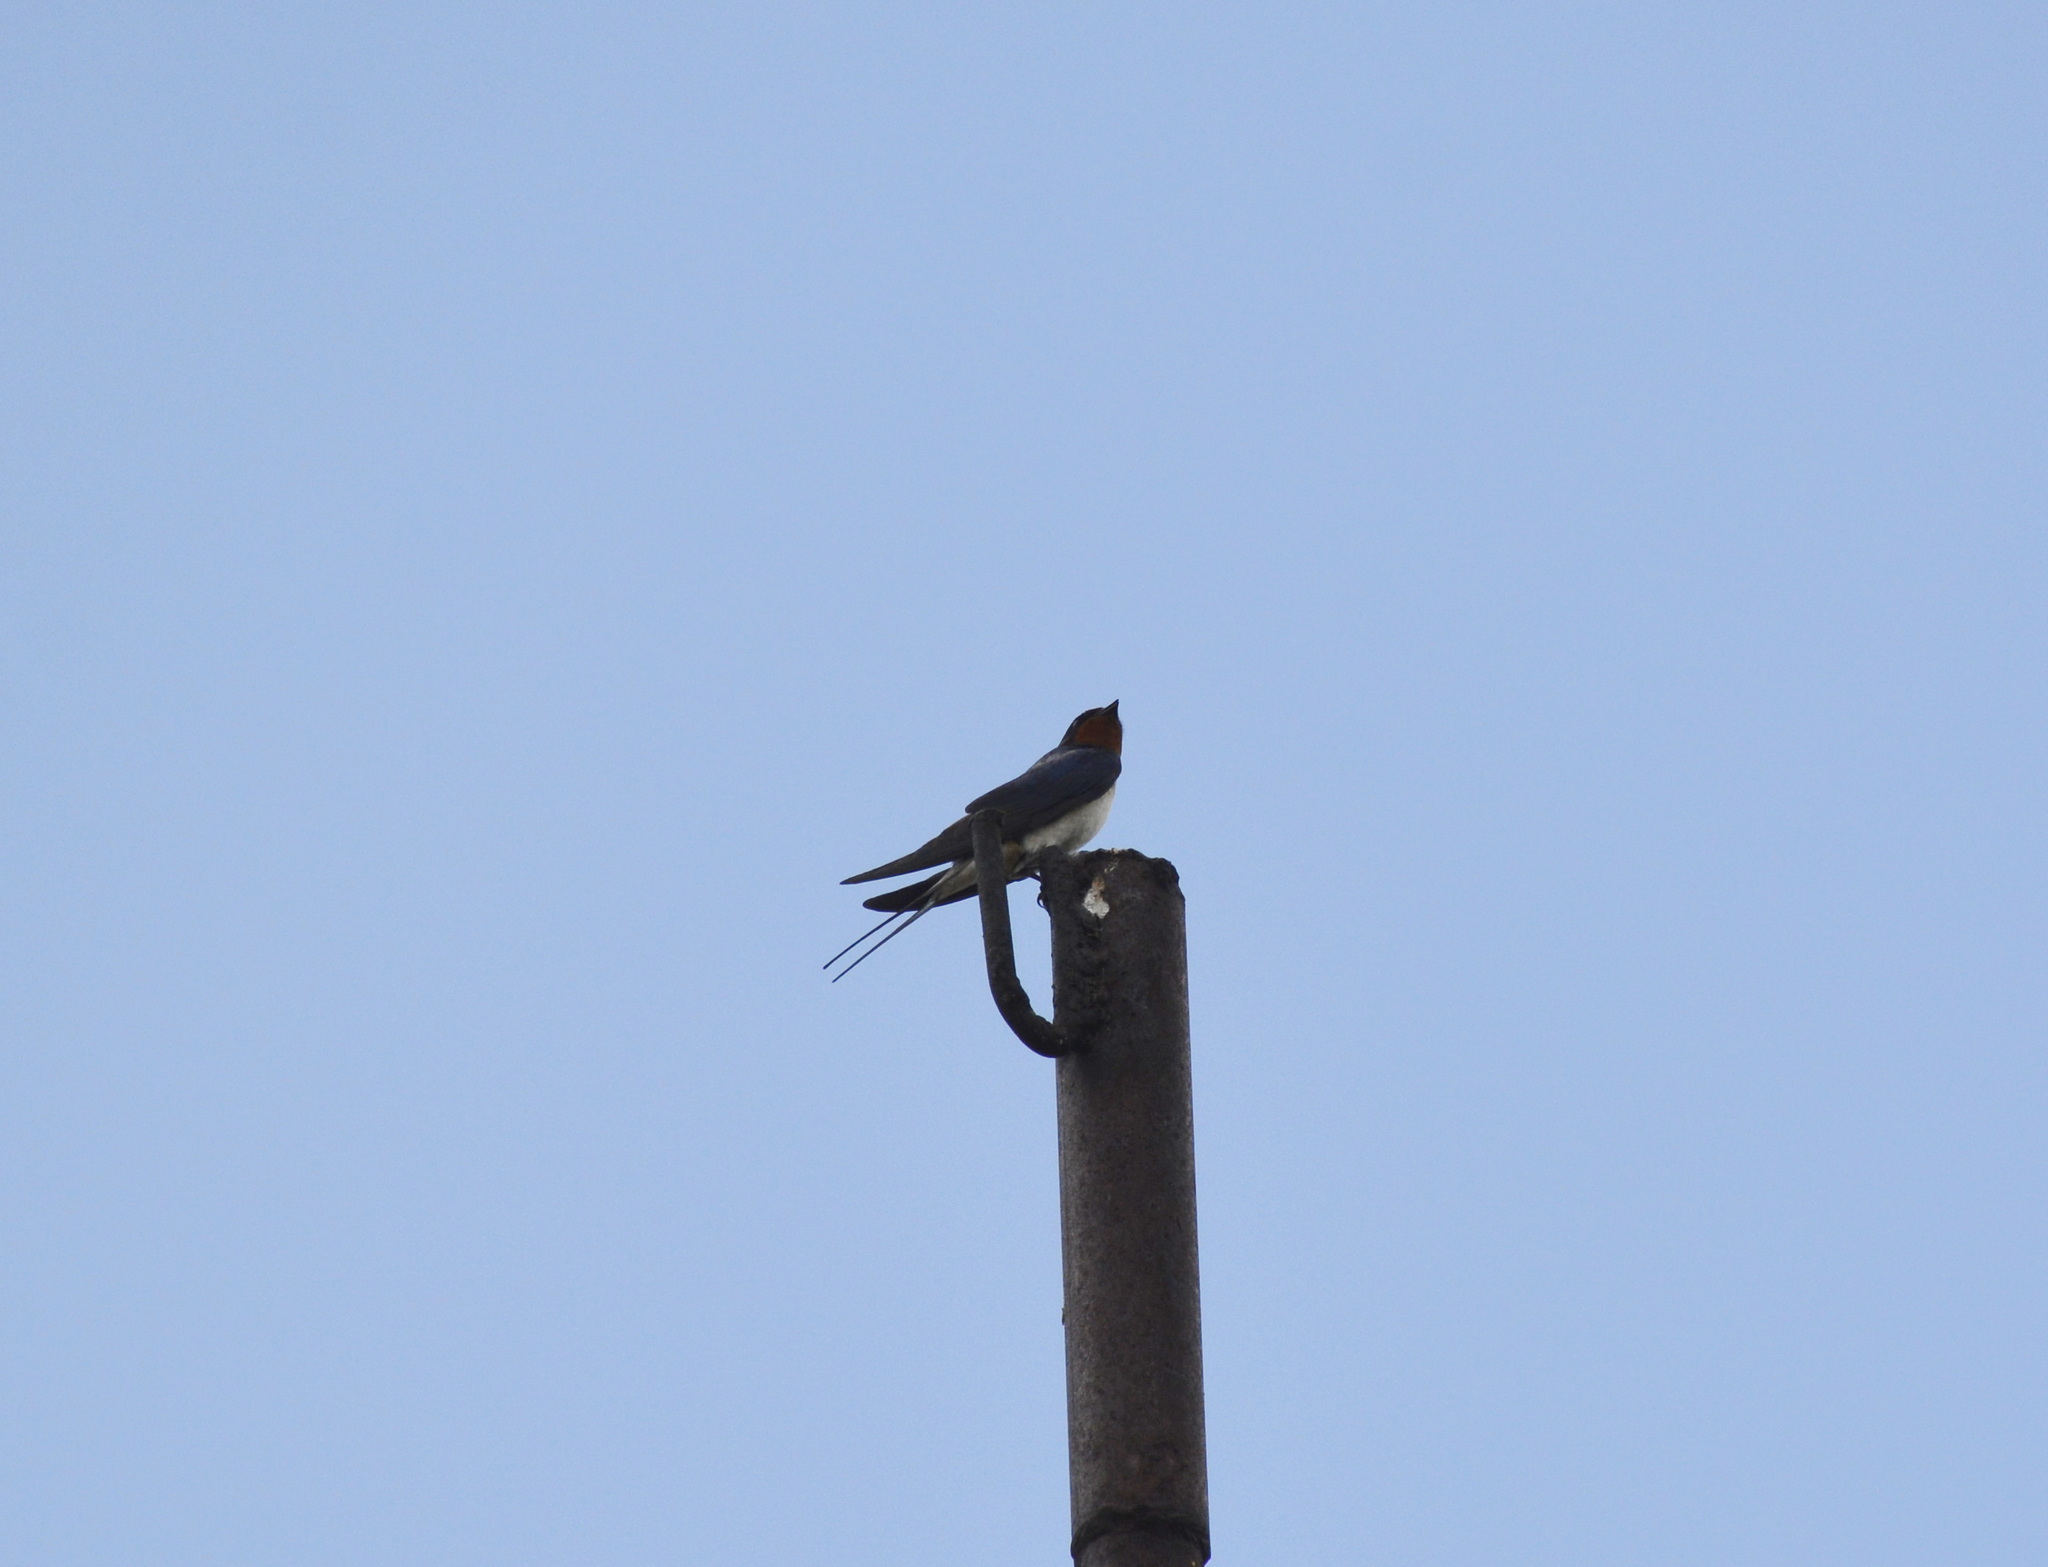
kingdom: Animalia
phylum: Chordata
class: Aves
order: Passeriformes
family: Hirundinidae
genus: Hirundo
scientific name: Hirundo rustica
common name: Barn swallow
